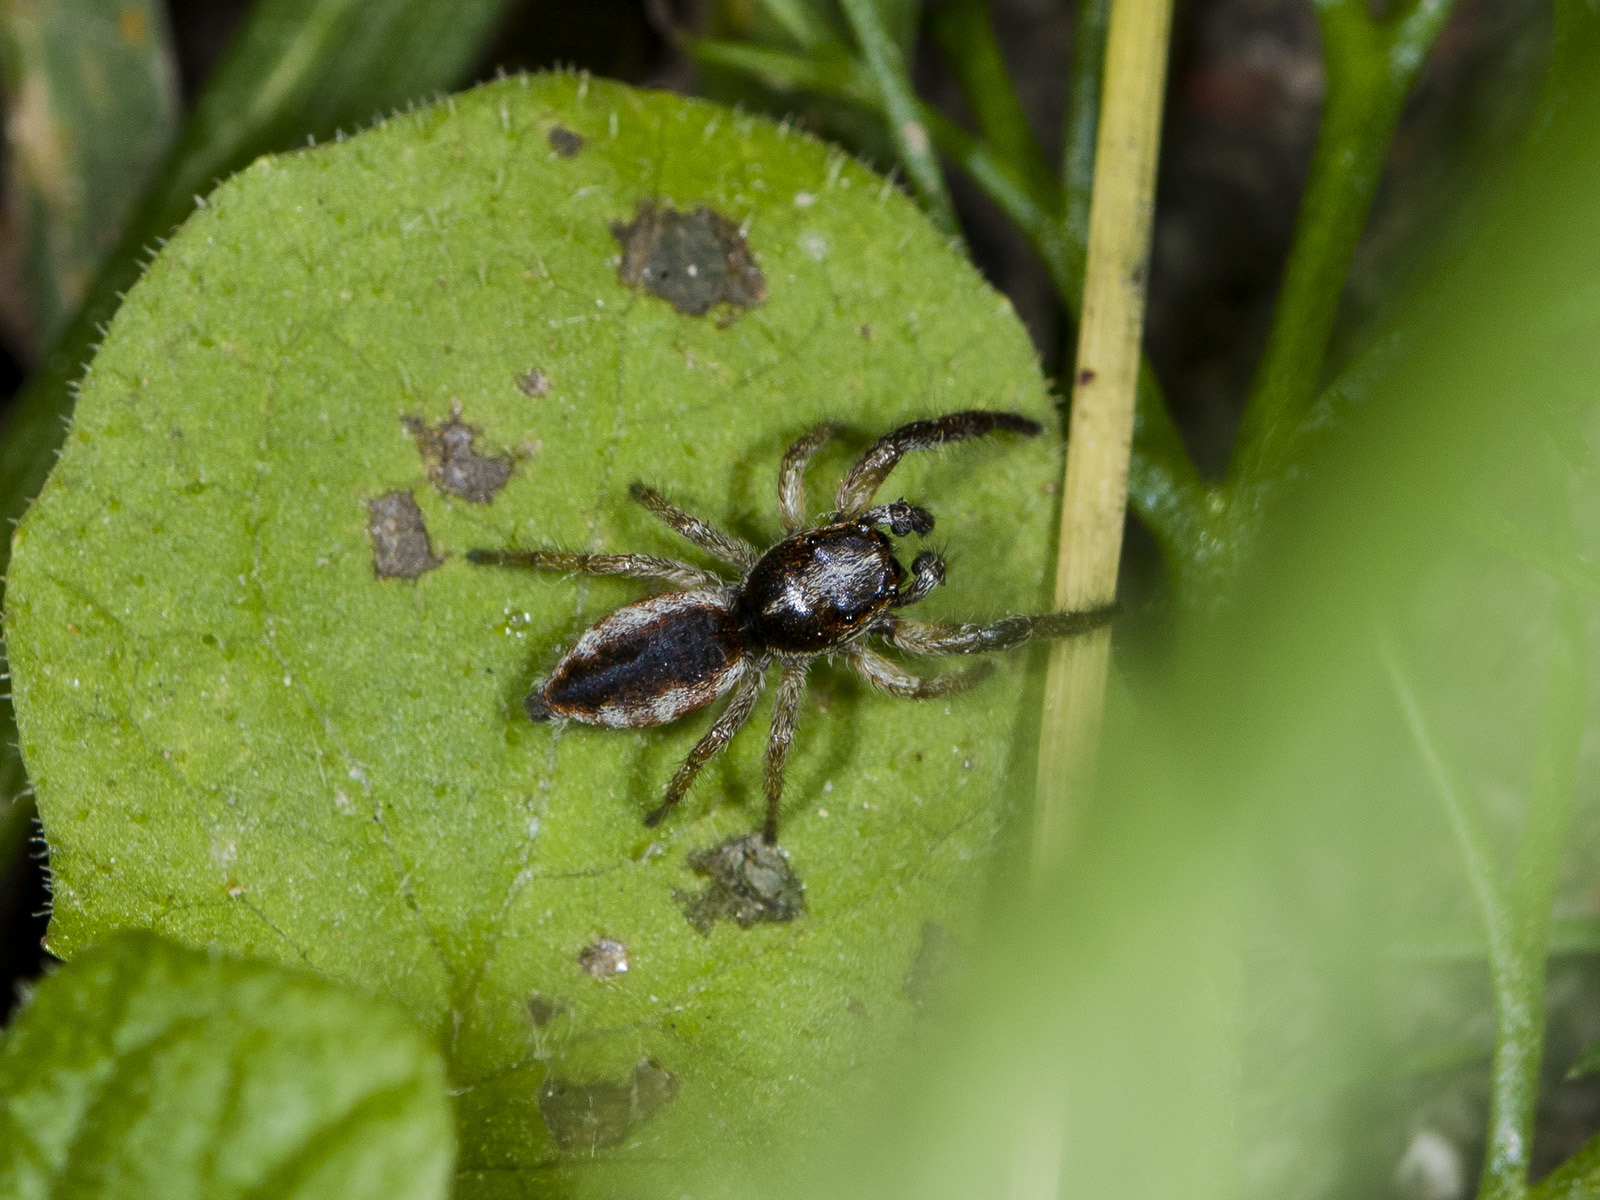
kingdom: Animalia
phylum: Arthropoda
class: Arachnida
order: Araneae
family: Salticidae
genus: Rudakius
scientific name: Rudakius cinctus
